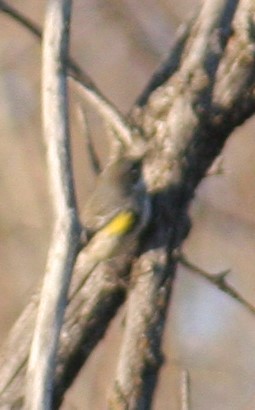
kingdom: Animalia
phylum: Chordata
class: Aves
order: Passeriformes
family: Parulidae
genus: Setophaga
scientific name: Setophaga coronata
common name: Myrtle warbler
